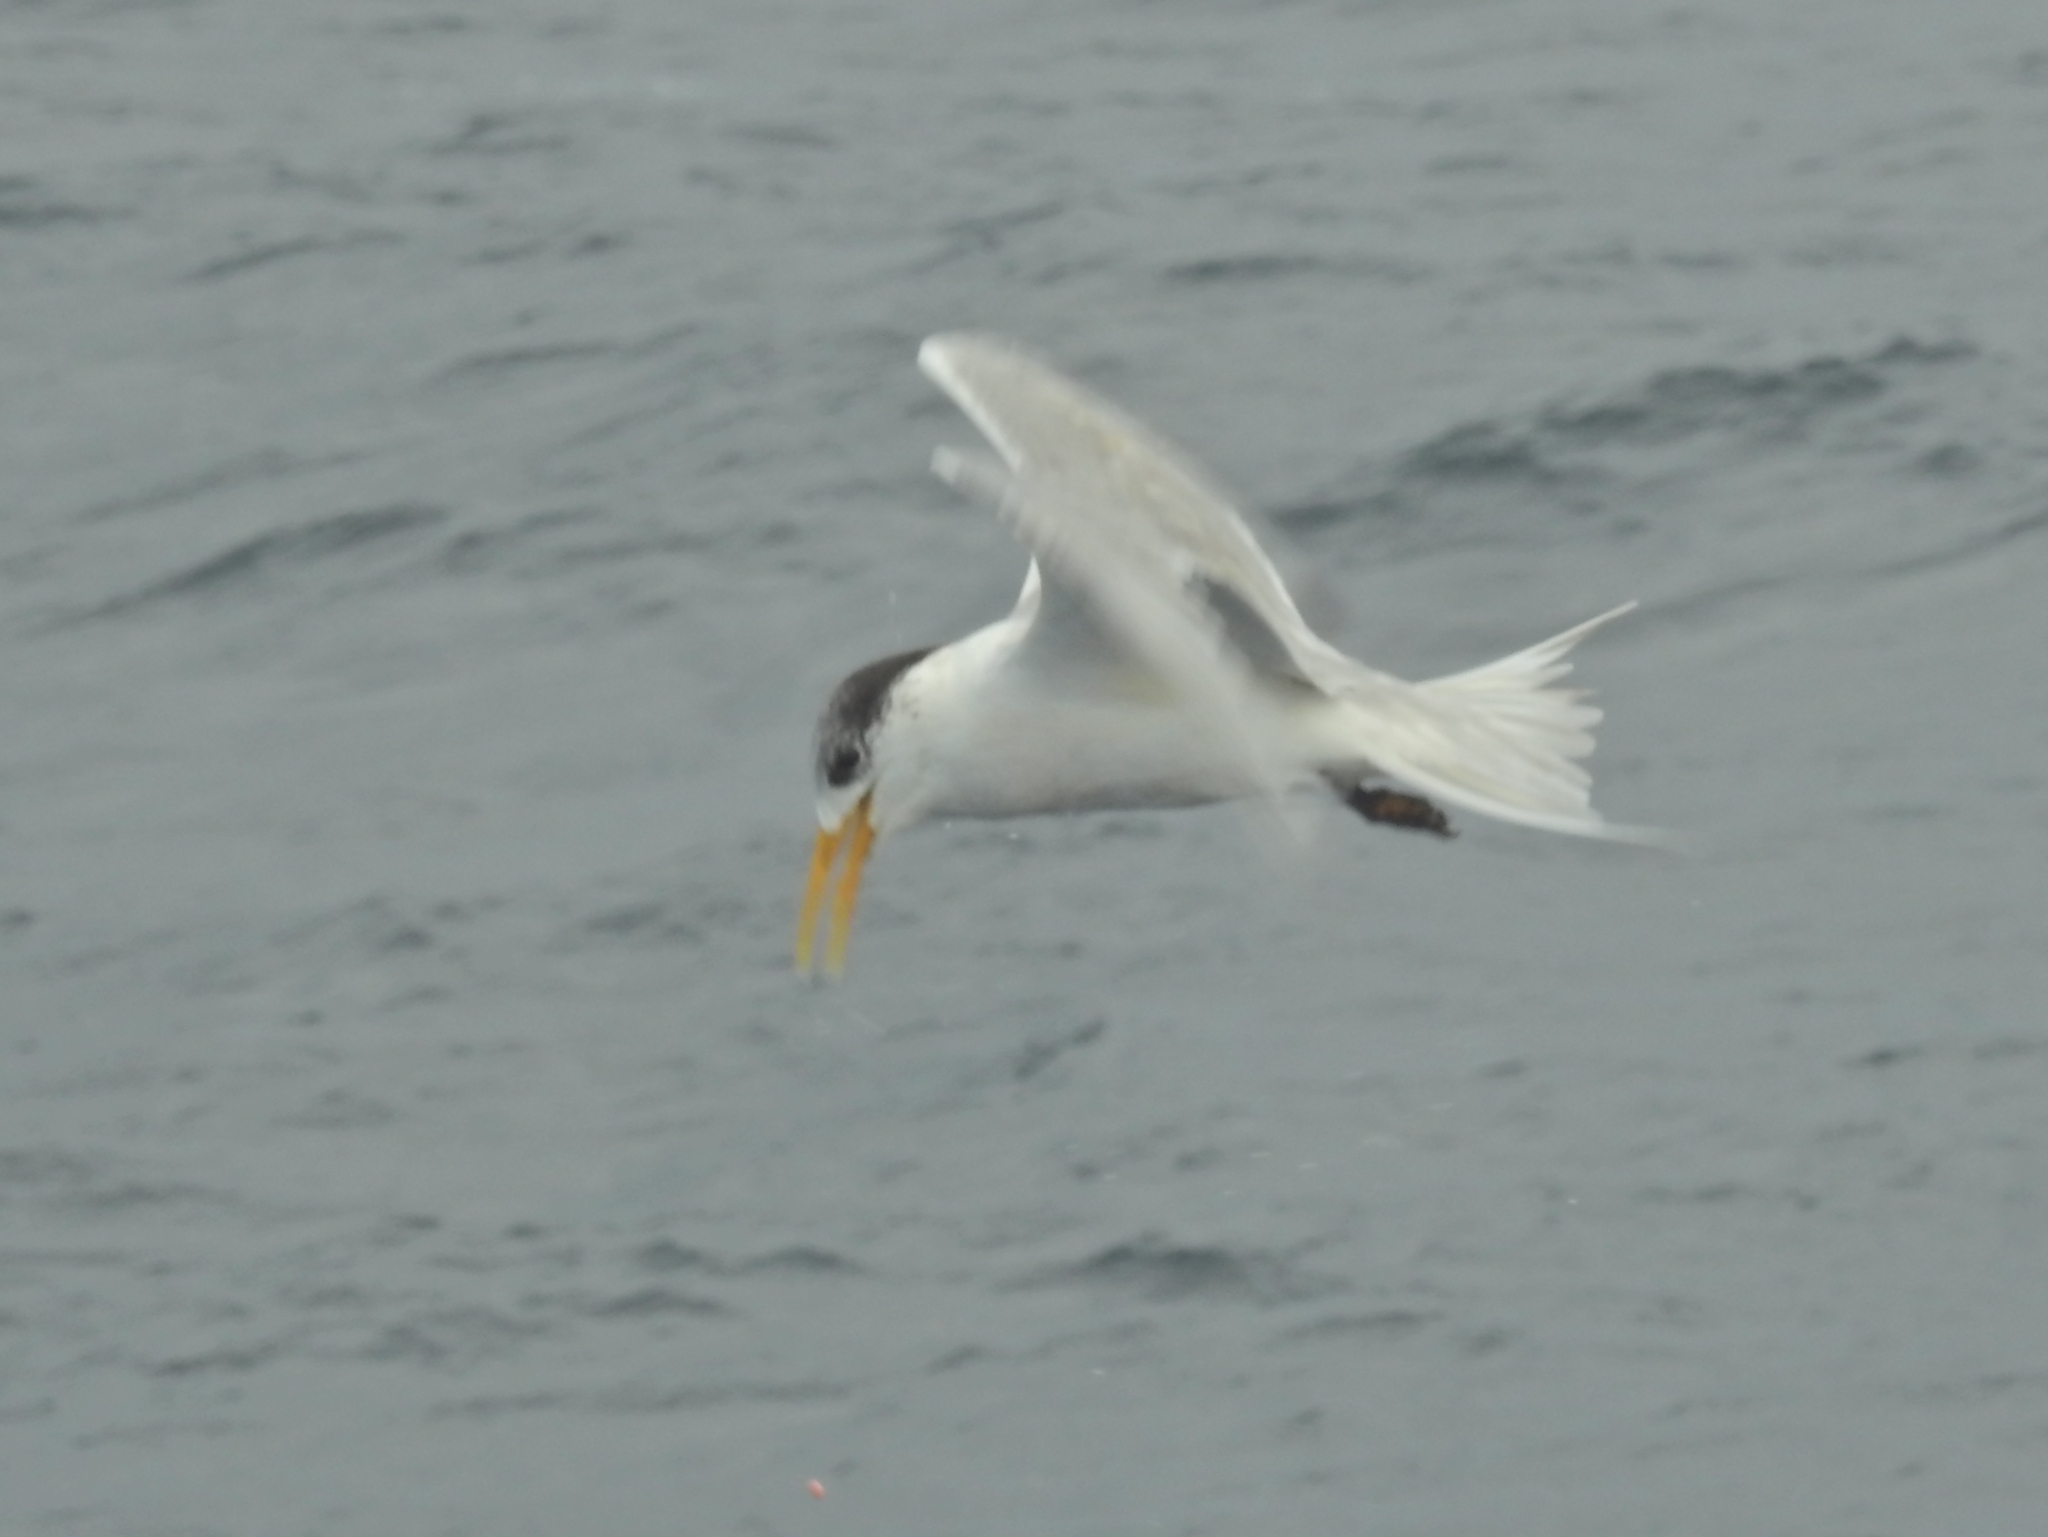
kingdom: Animalia
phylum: Chordata
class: Aves
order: Charadriiformes
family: Laridae
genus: Thalasseus
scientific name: Thalasseus bergii
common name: Greater crested tern
